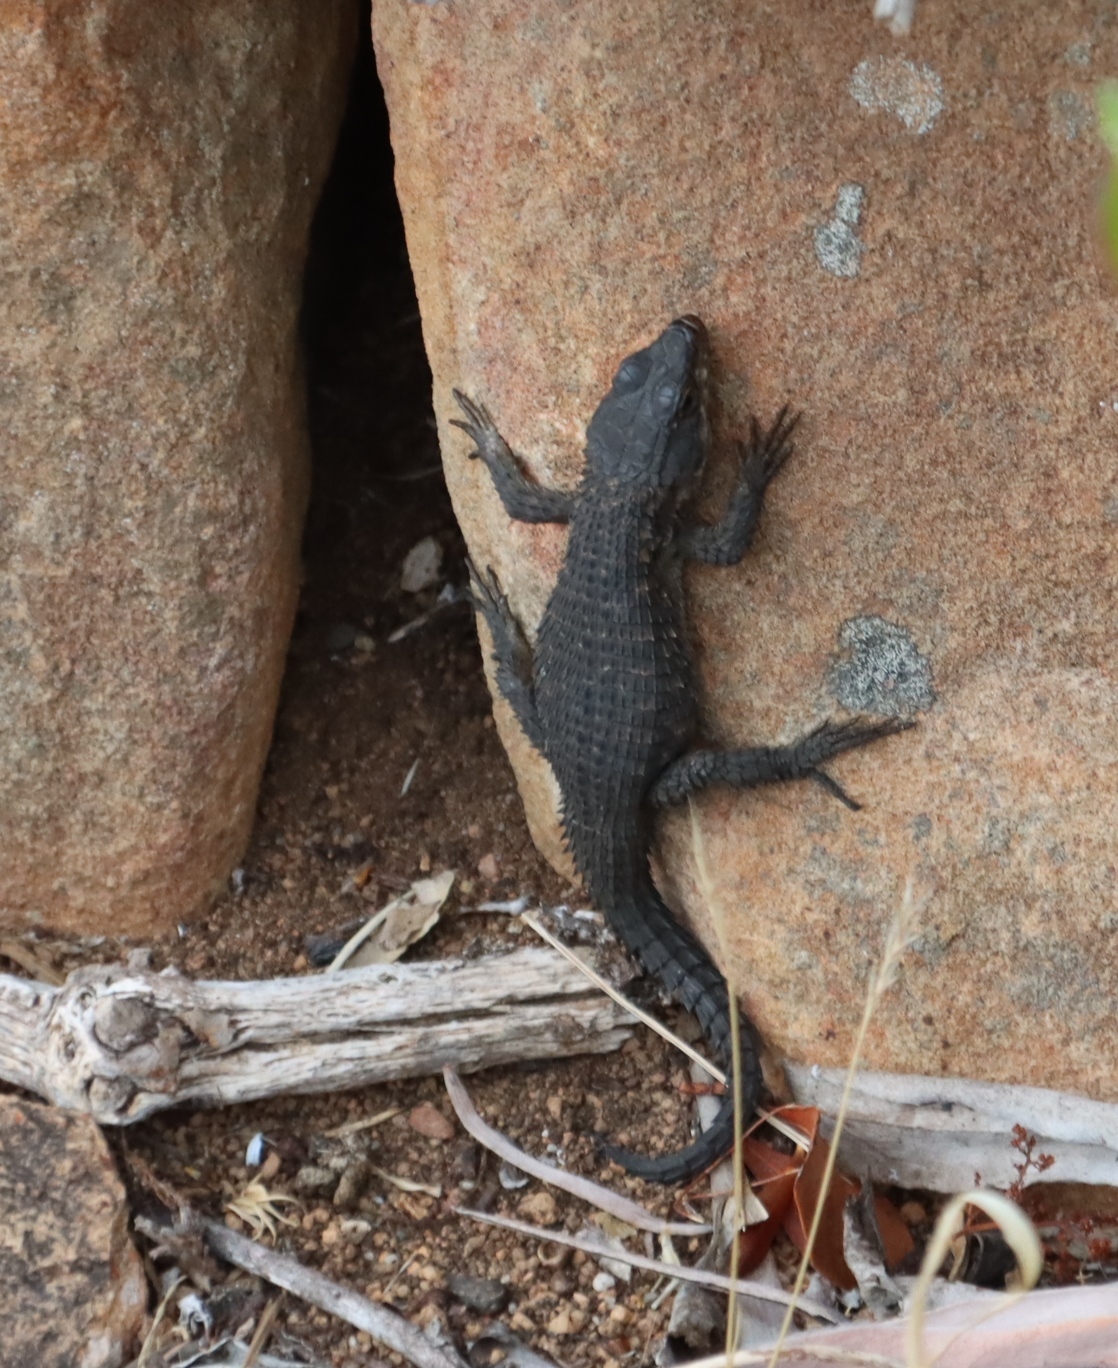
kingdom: Animalia
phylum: Chordata
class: Squamata
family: Cordylidae
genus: Cordylus
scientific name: Cordylus niger
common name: Black girdled lizard
